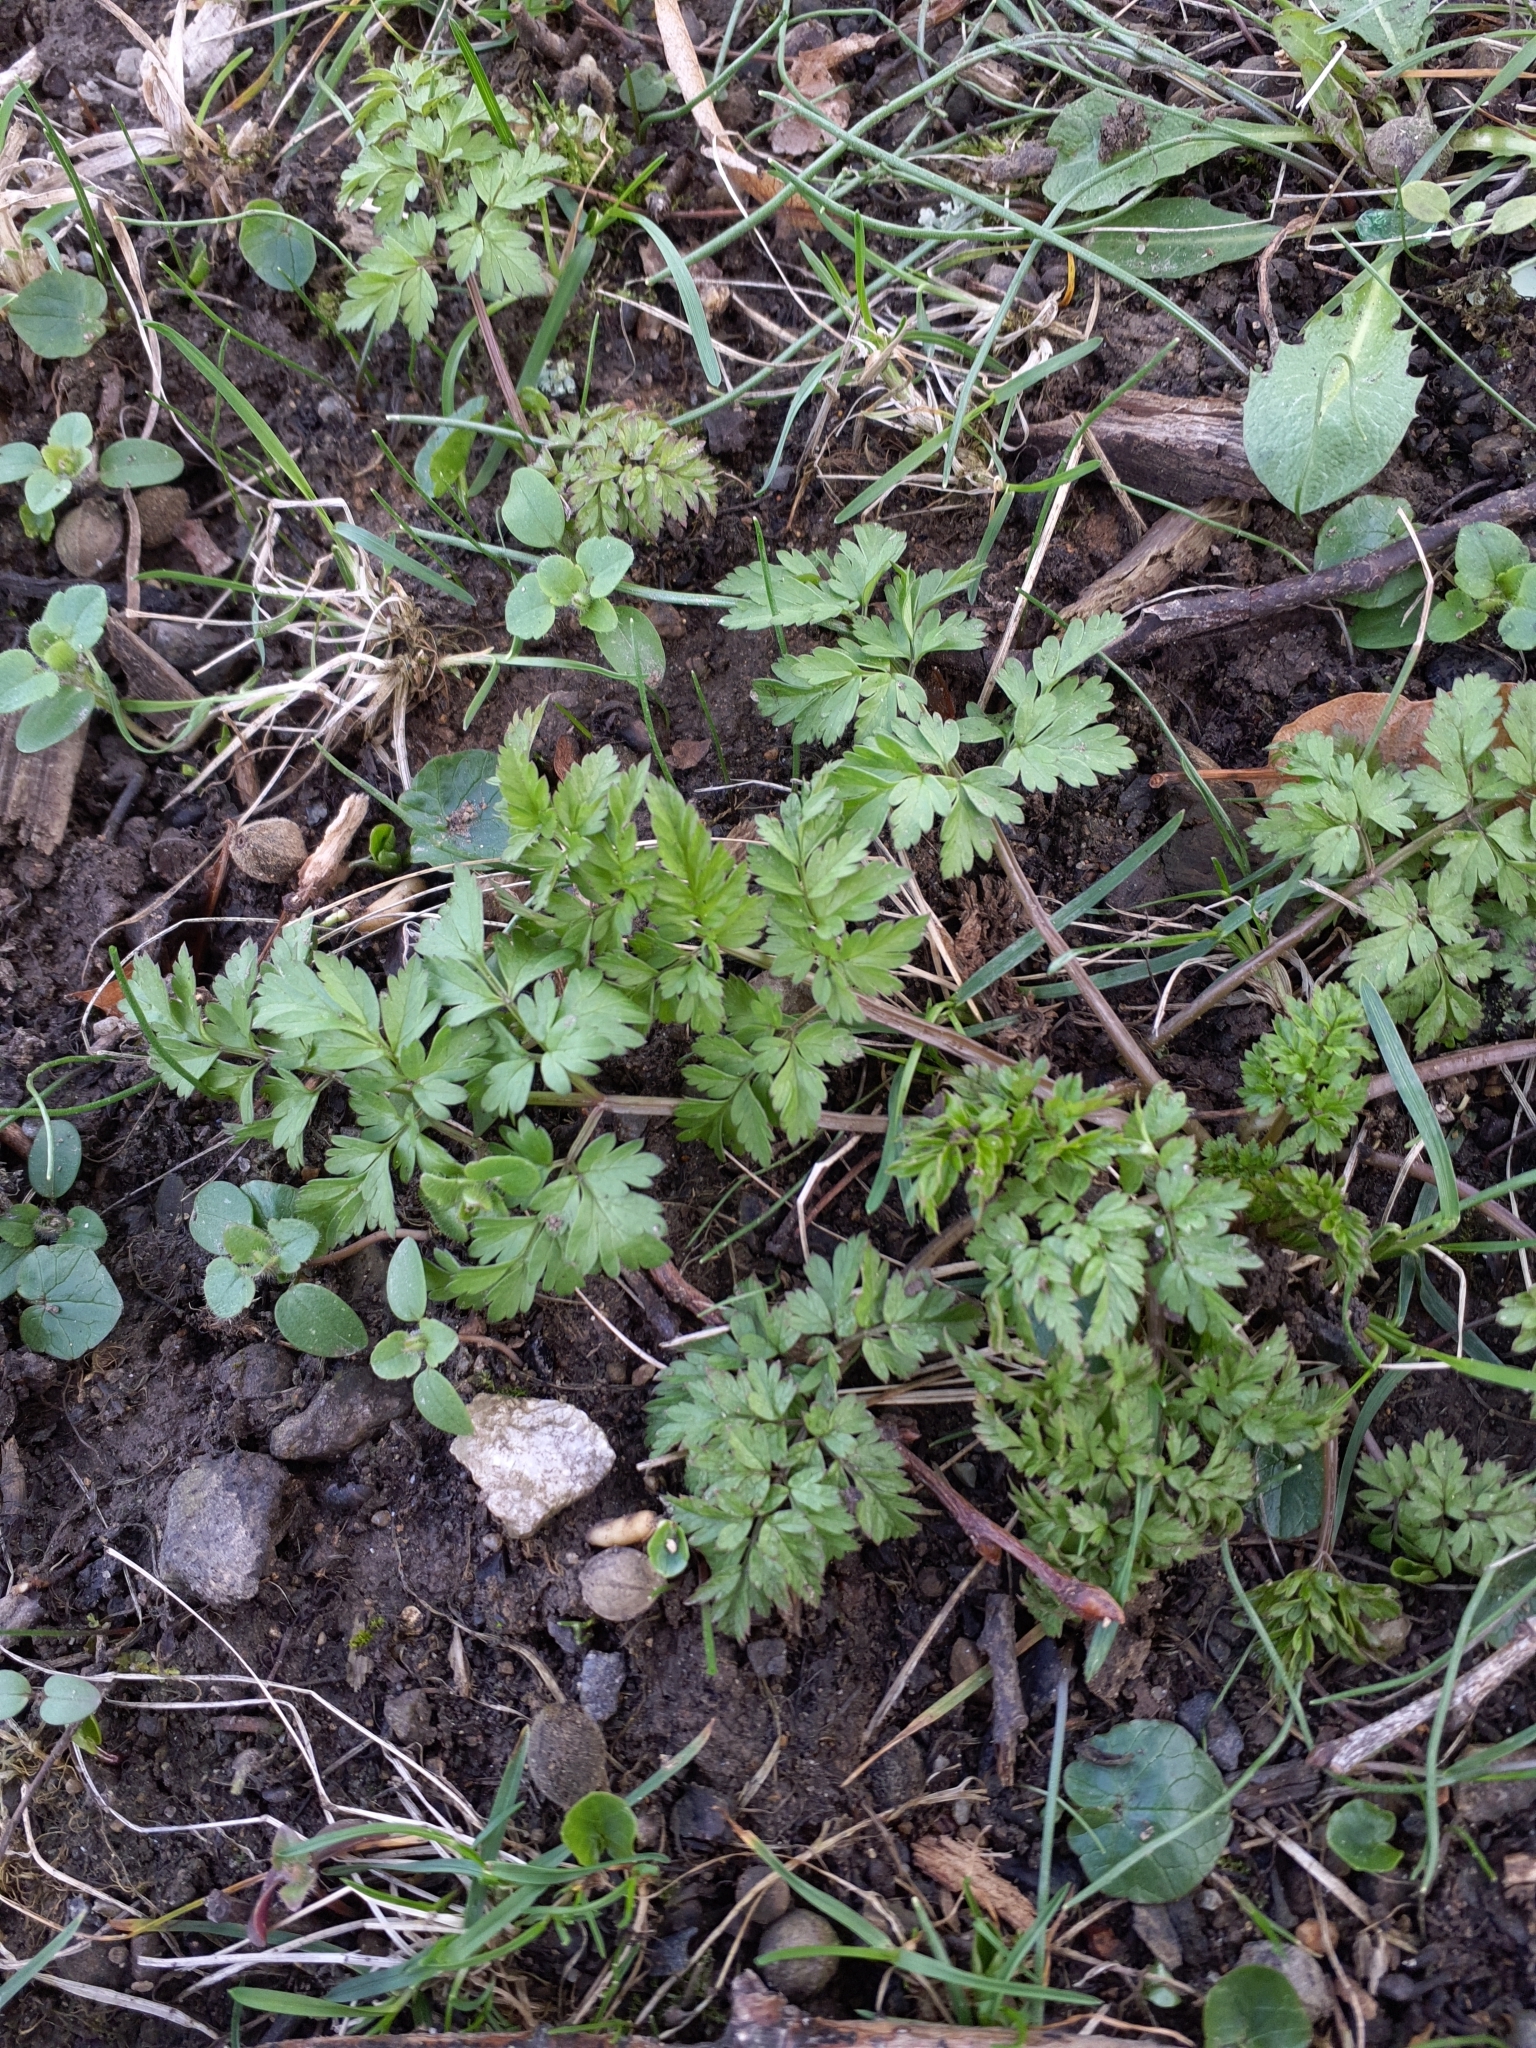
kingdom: Plantae
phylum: Tracheophyta
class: Magnoliopsida
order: Apiales
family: Apiaceae
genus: Anthriscus
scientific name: Anthriscus sylvestris
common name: Cow parsley
